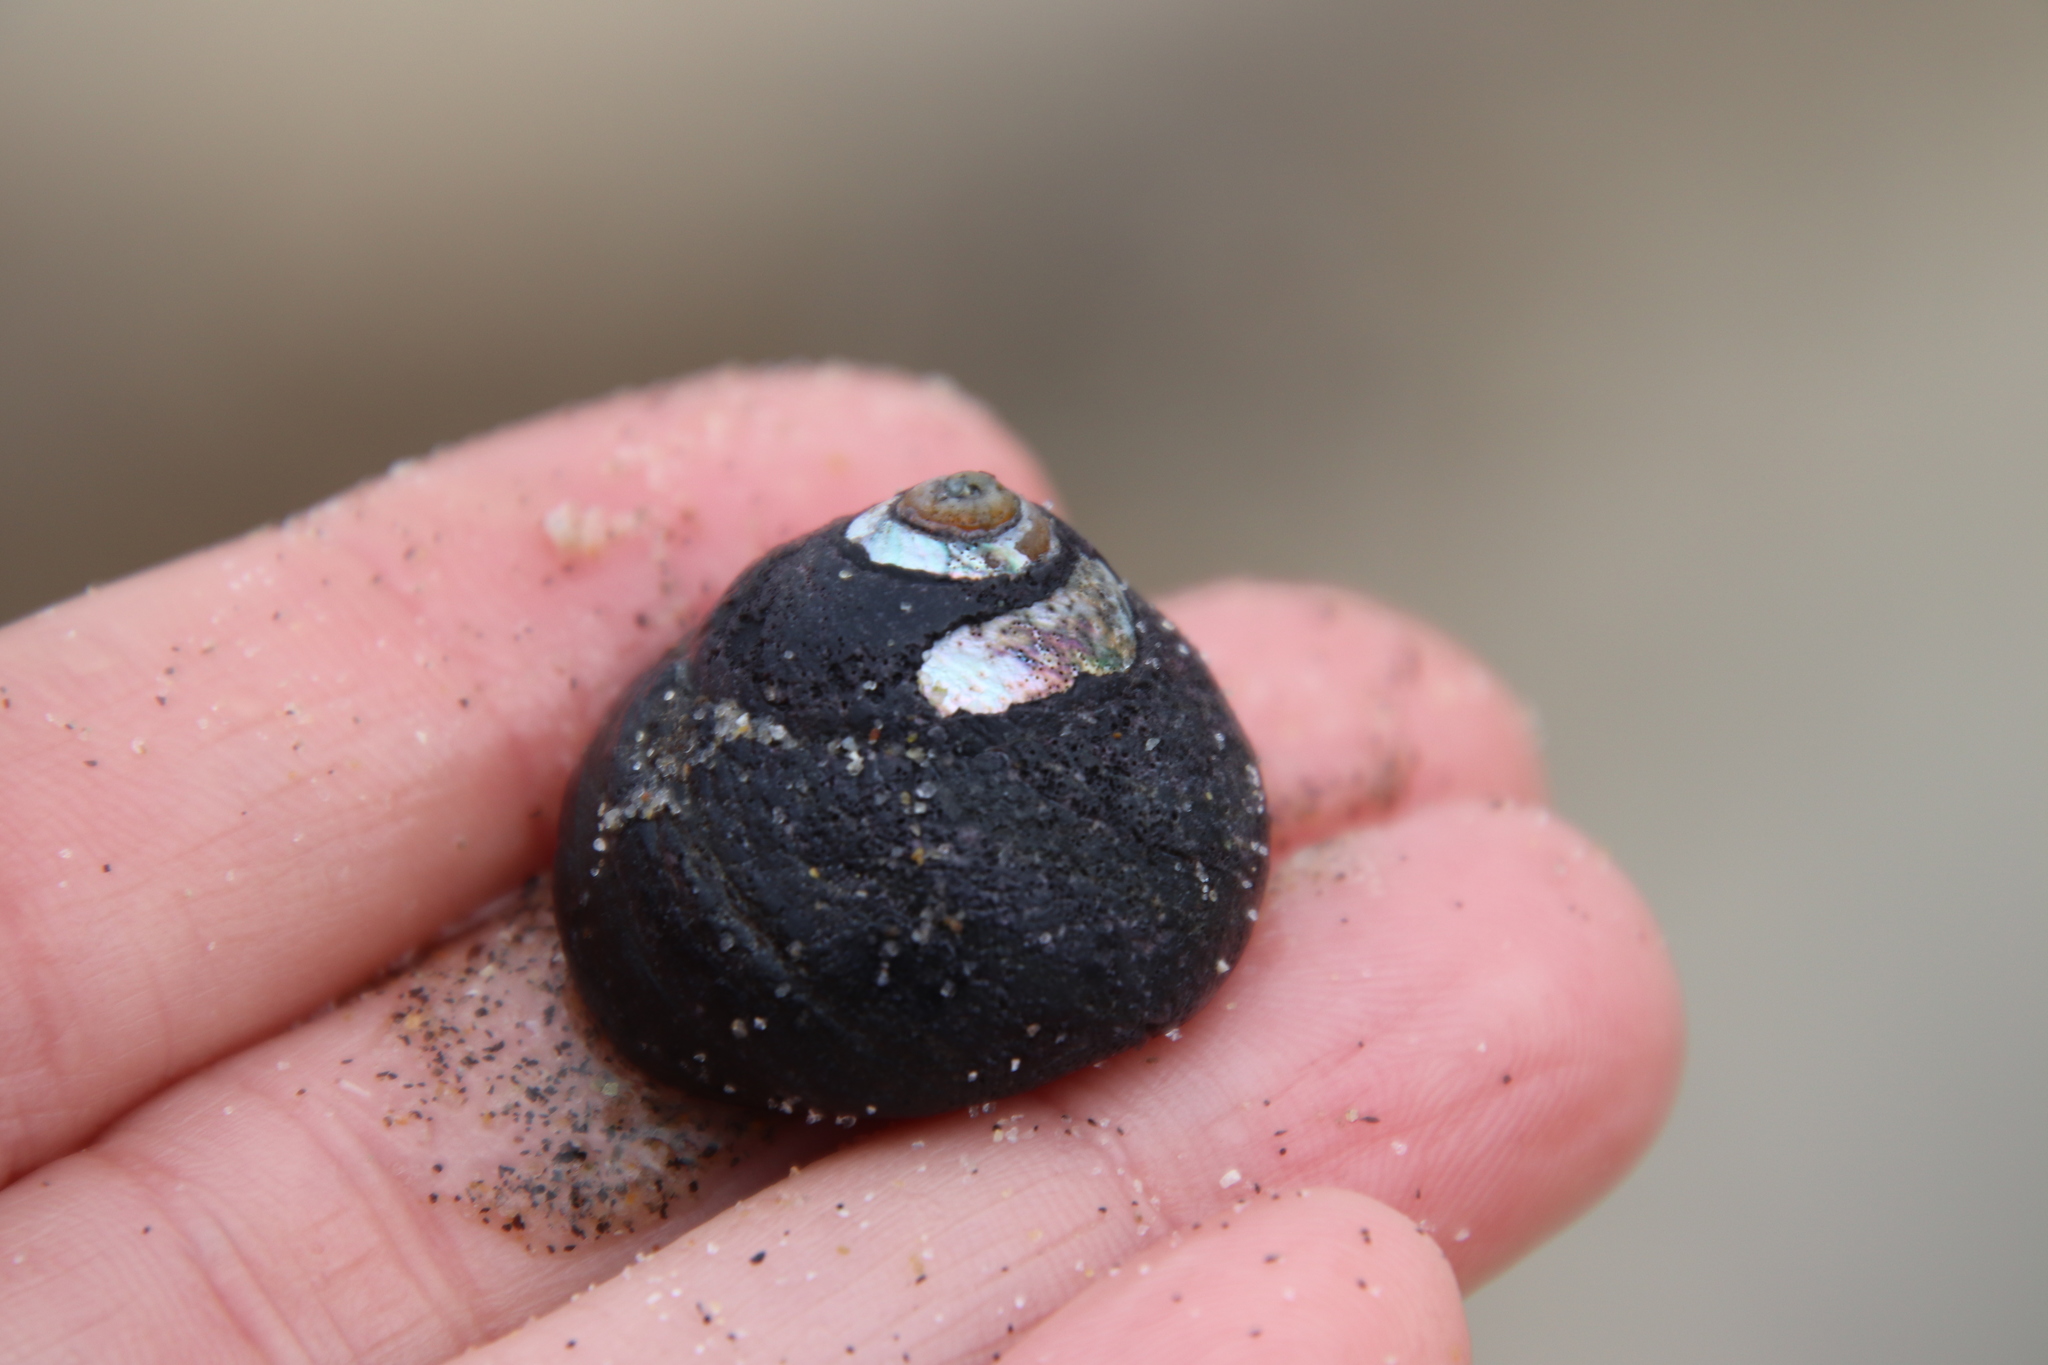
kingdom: Animalia
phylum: Mollusca
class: Gastropoda
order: Trochida
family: Tegulidae
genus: Tegula
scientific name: Tegula funebralis
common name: Black tegula
